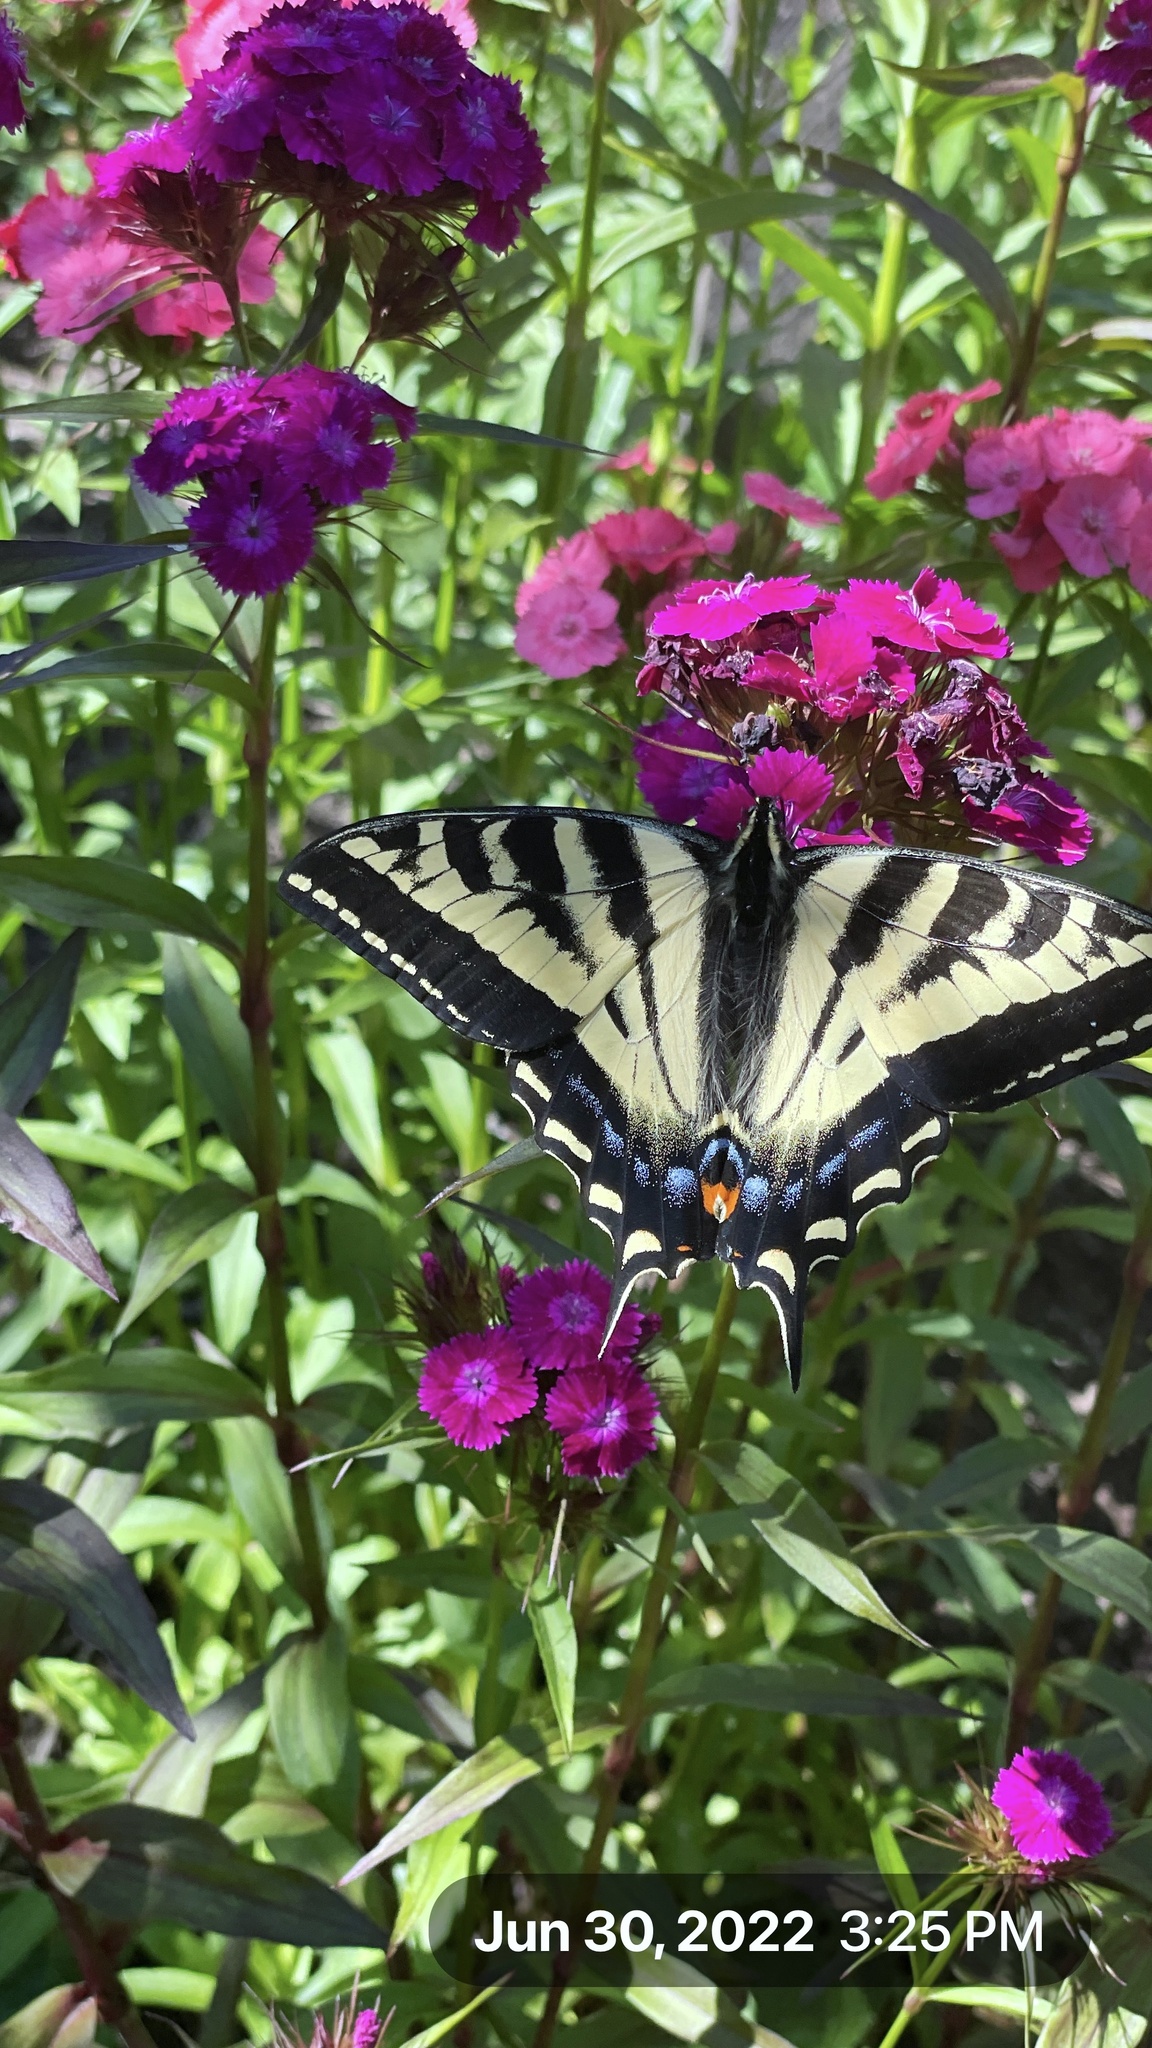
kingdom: Animalia
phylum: Arthropoda
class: Insecta
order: Lepidoptera
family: Papilionidae
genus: Papilio
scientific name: Papilio rutulus
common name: Western tiger swallowtail
